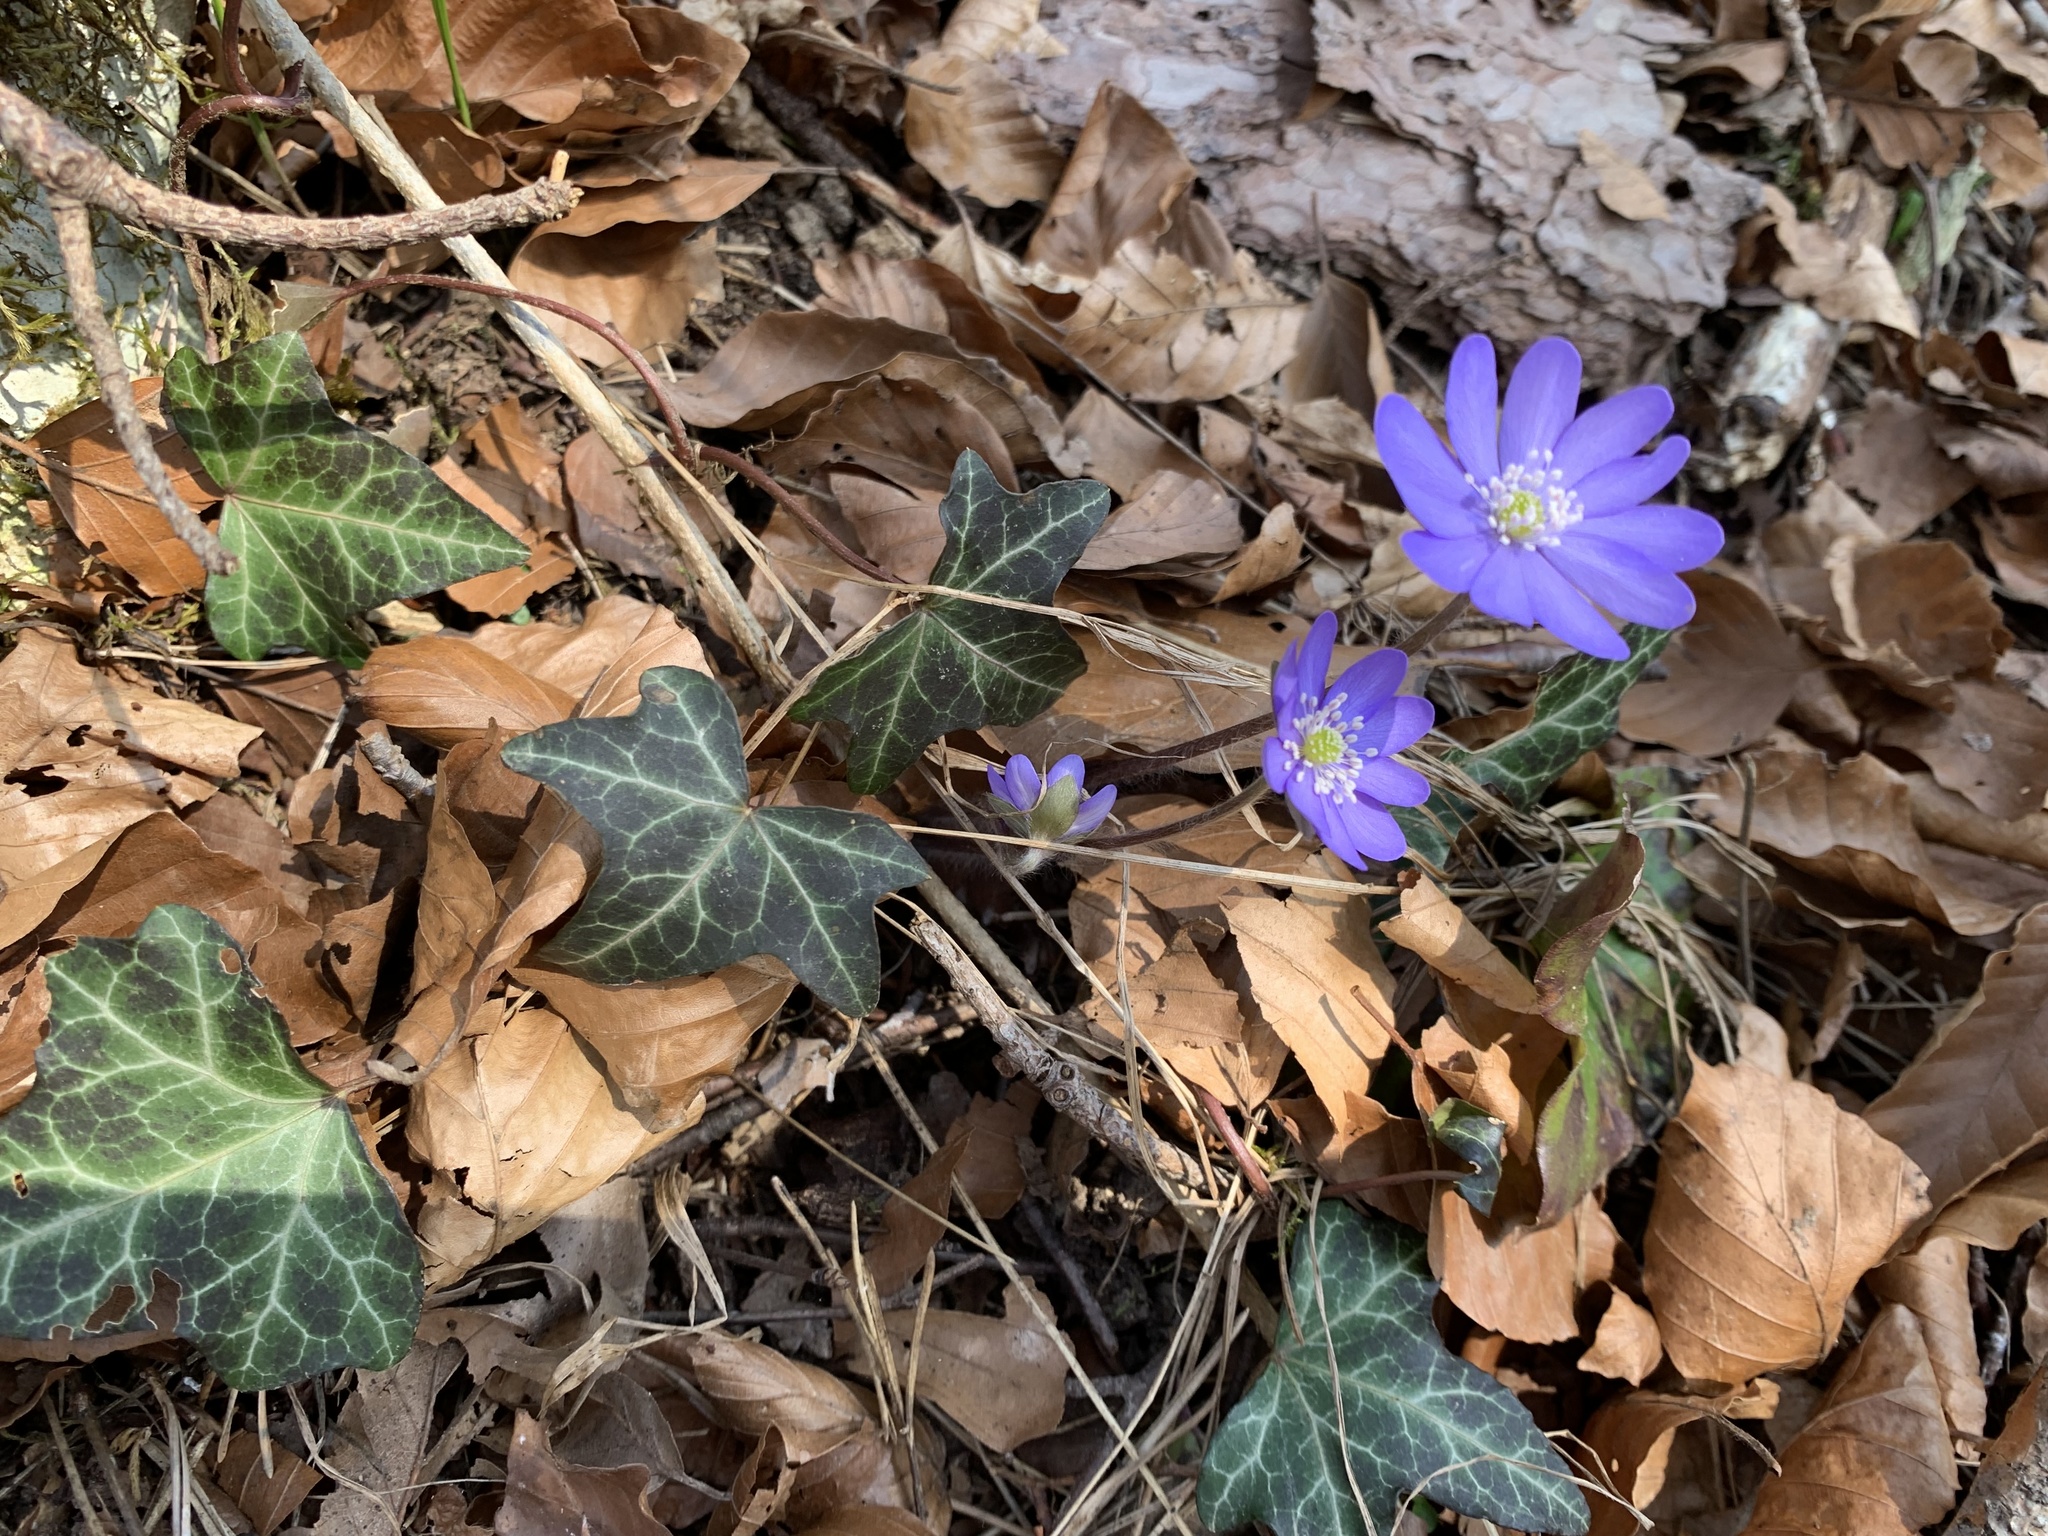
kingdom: Plantae
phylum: Tracheophyta
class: Magnoliopsida
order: Ranunculales
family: Ranunculaceae
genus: Hepatica
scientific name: Hepatica nobilis
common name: Liverleaf
